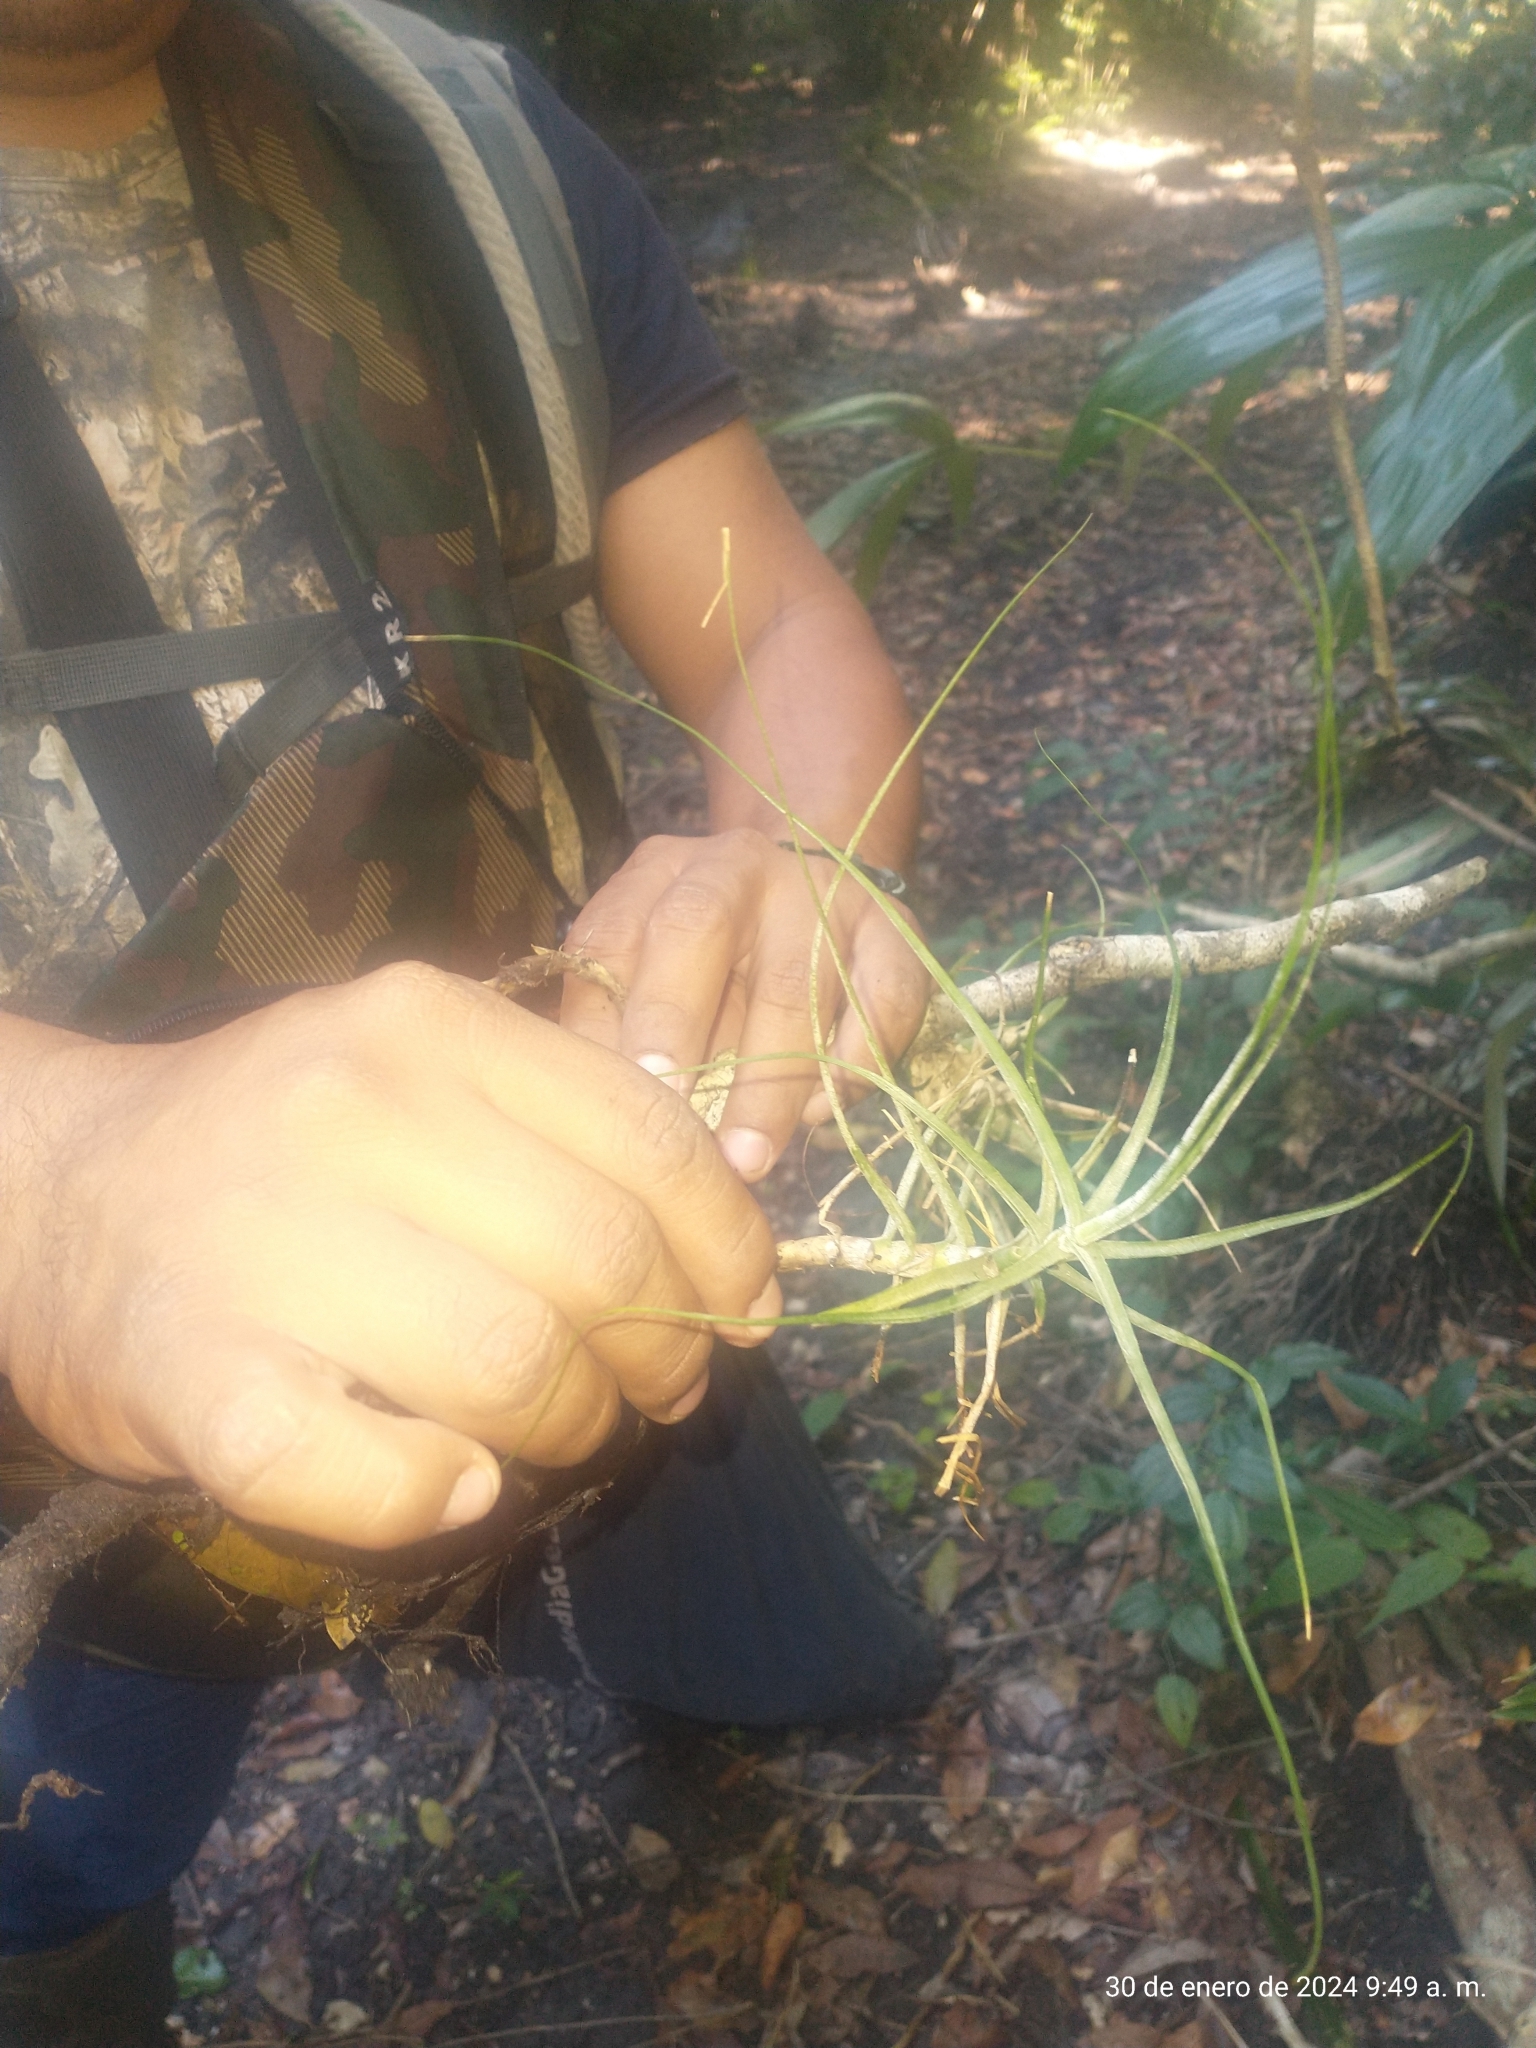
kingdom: Plantae
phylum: Tracheophyta
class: Liliopsida
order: Poales
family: Bromeliaceae
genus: Tillandsia
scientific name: Tillandsia schiedeana
